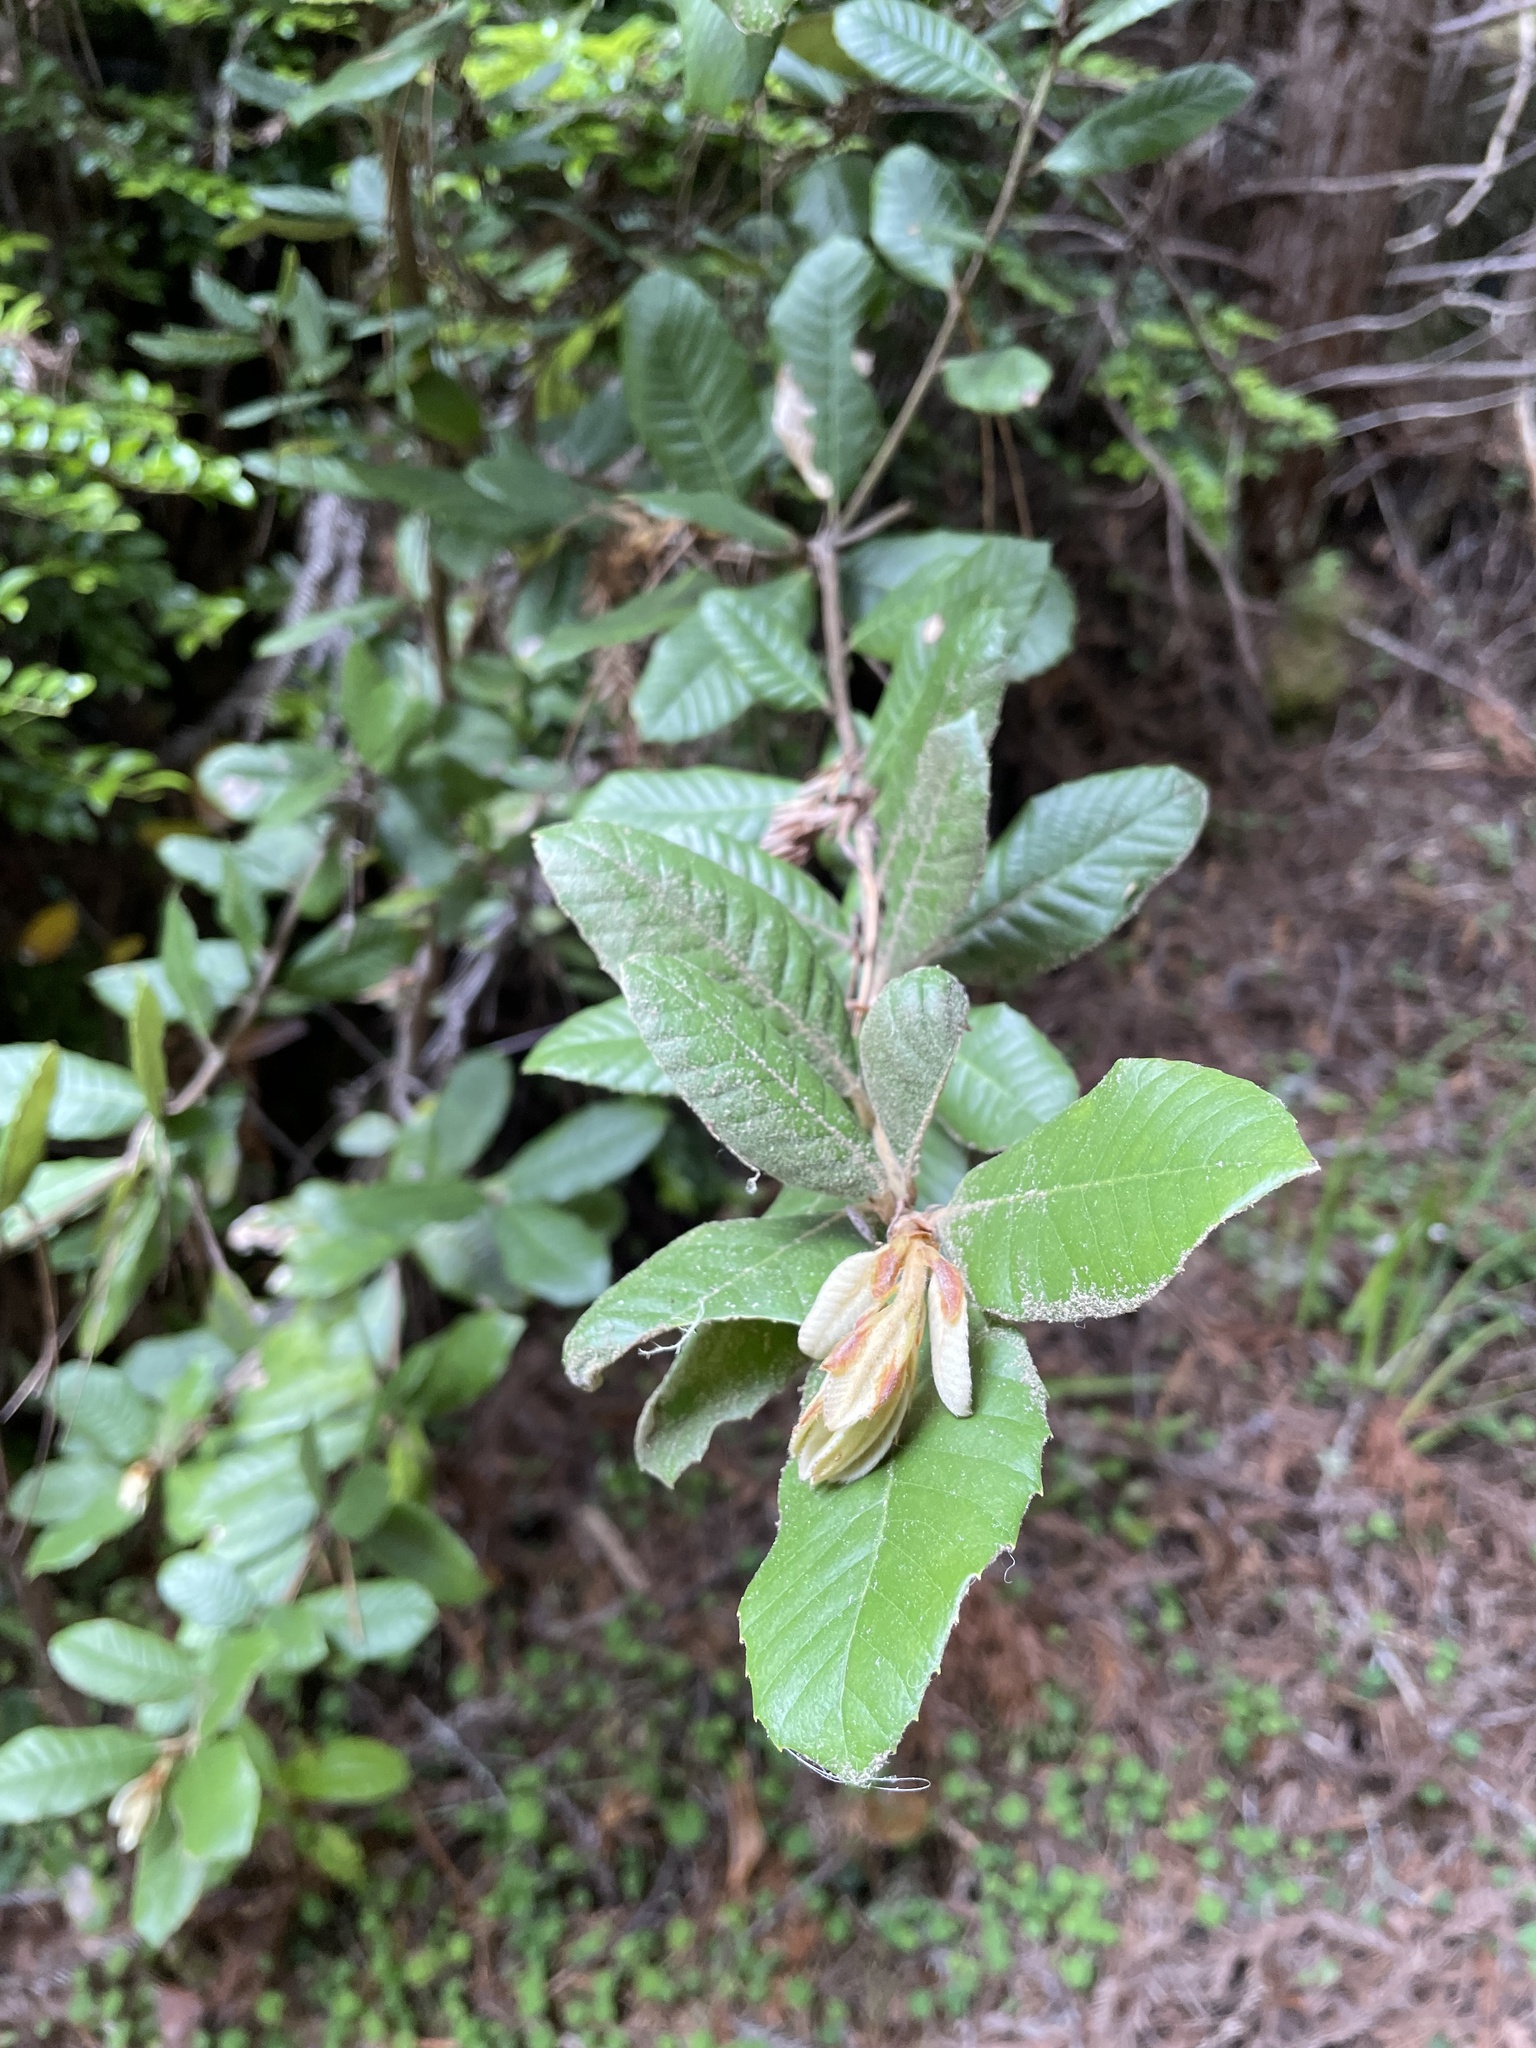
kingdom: Plantae
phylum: Tracheophyta
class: Magnoliopsida
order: Fagales
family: Fagaceae
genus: Notholithocarpus
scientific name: Notholithocarpus densiflorus
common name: Tan bark oak
